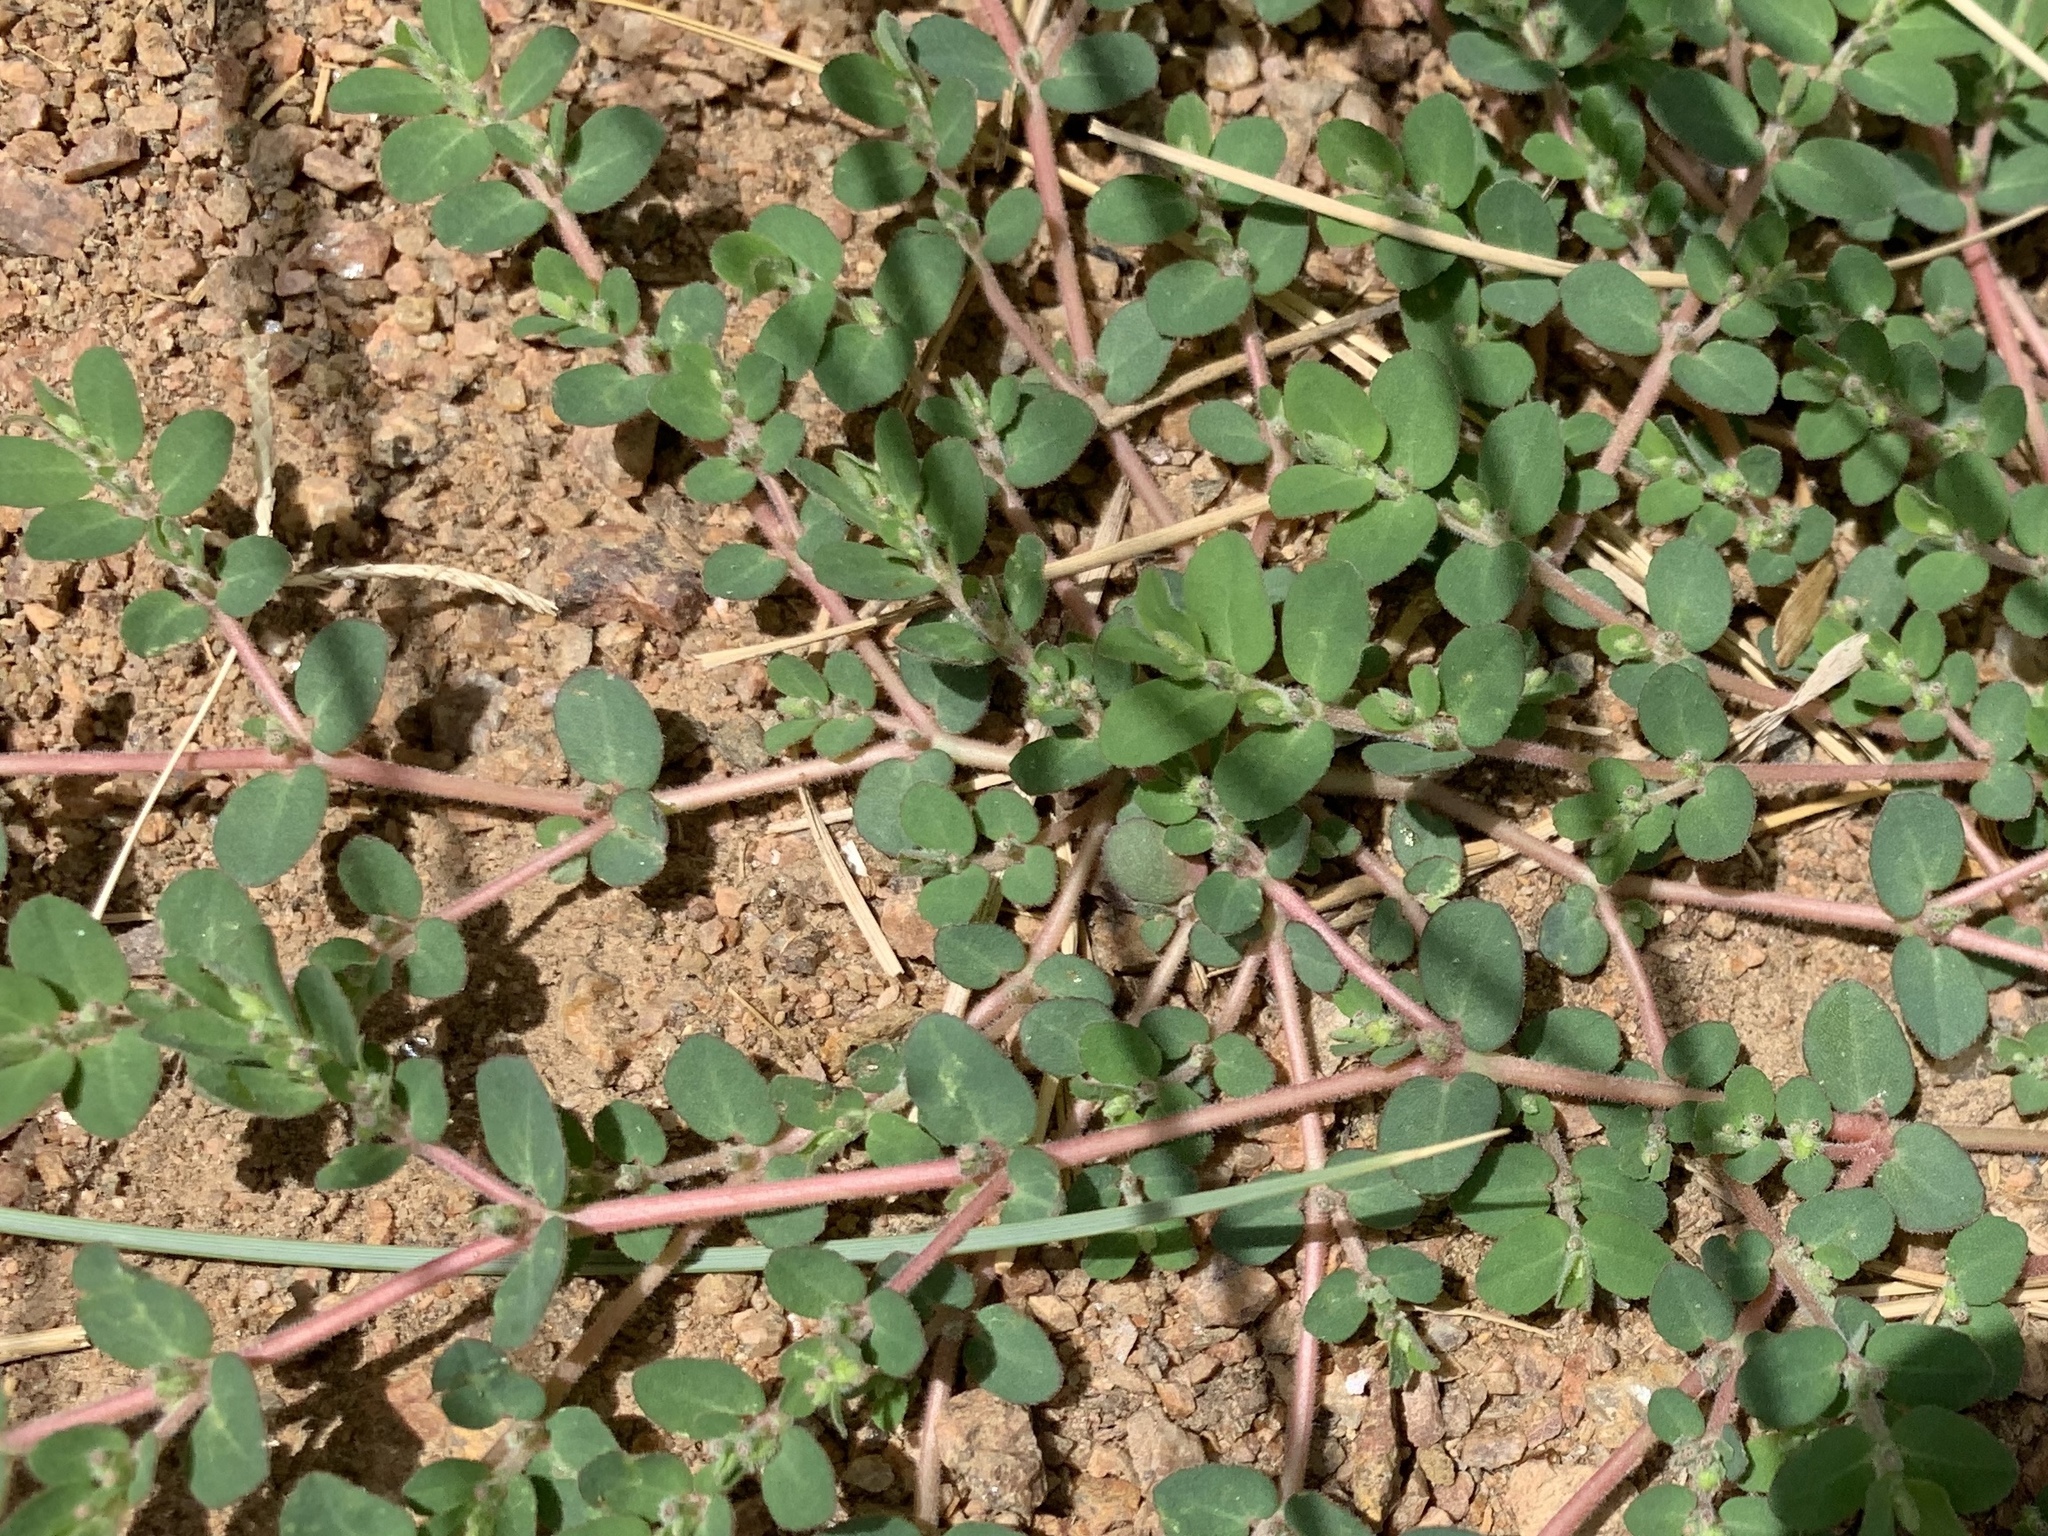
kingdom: Plantae
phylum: Tracheophyta
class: Magnoliopsida
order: Malpighiales
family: Euphorbiaceae
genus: Euphorbia
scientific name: Euphorbia prostrata
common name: Prostrate sandmat
